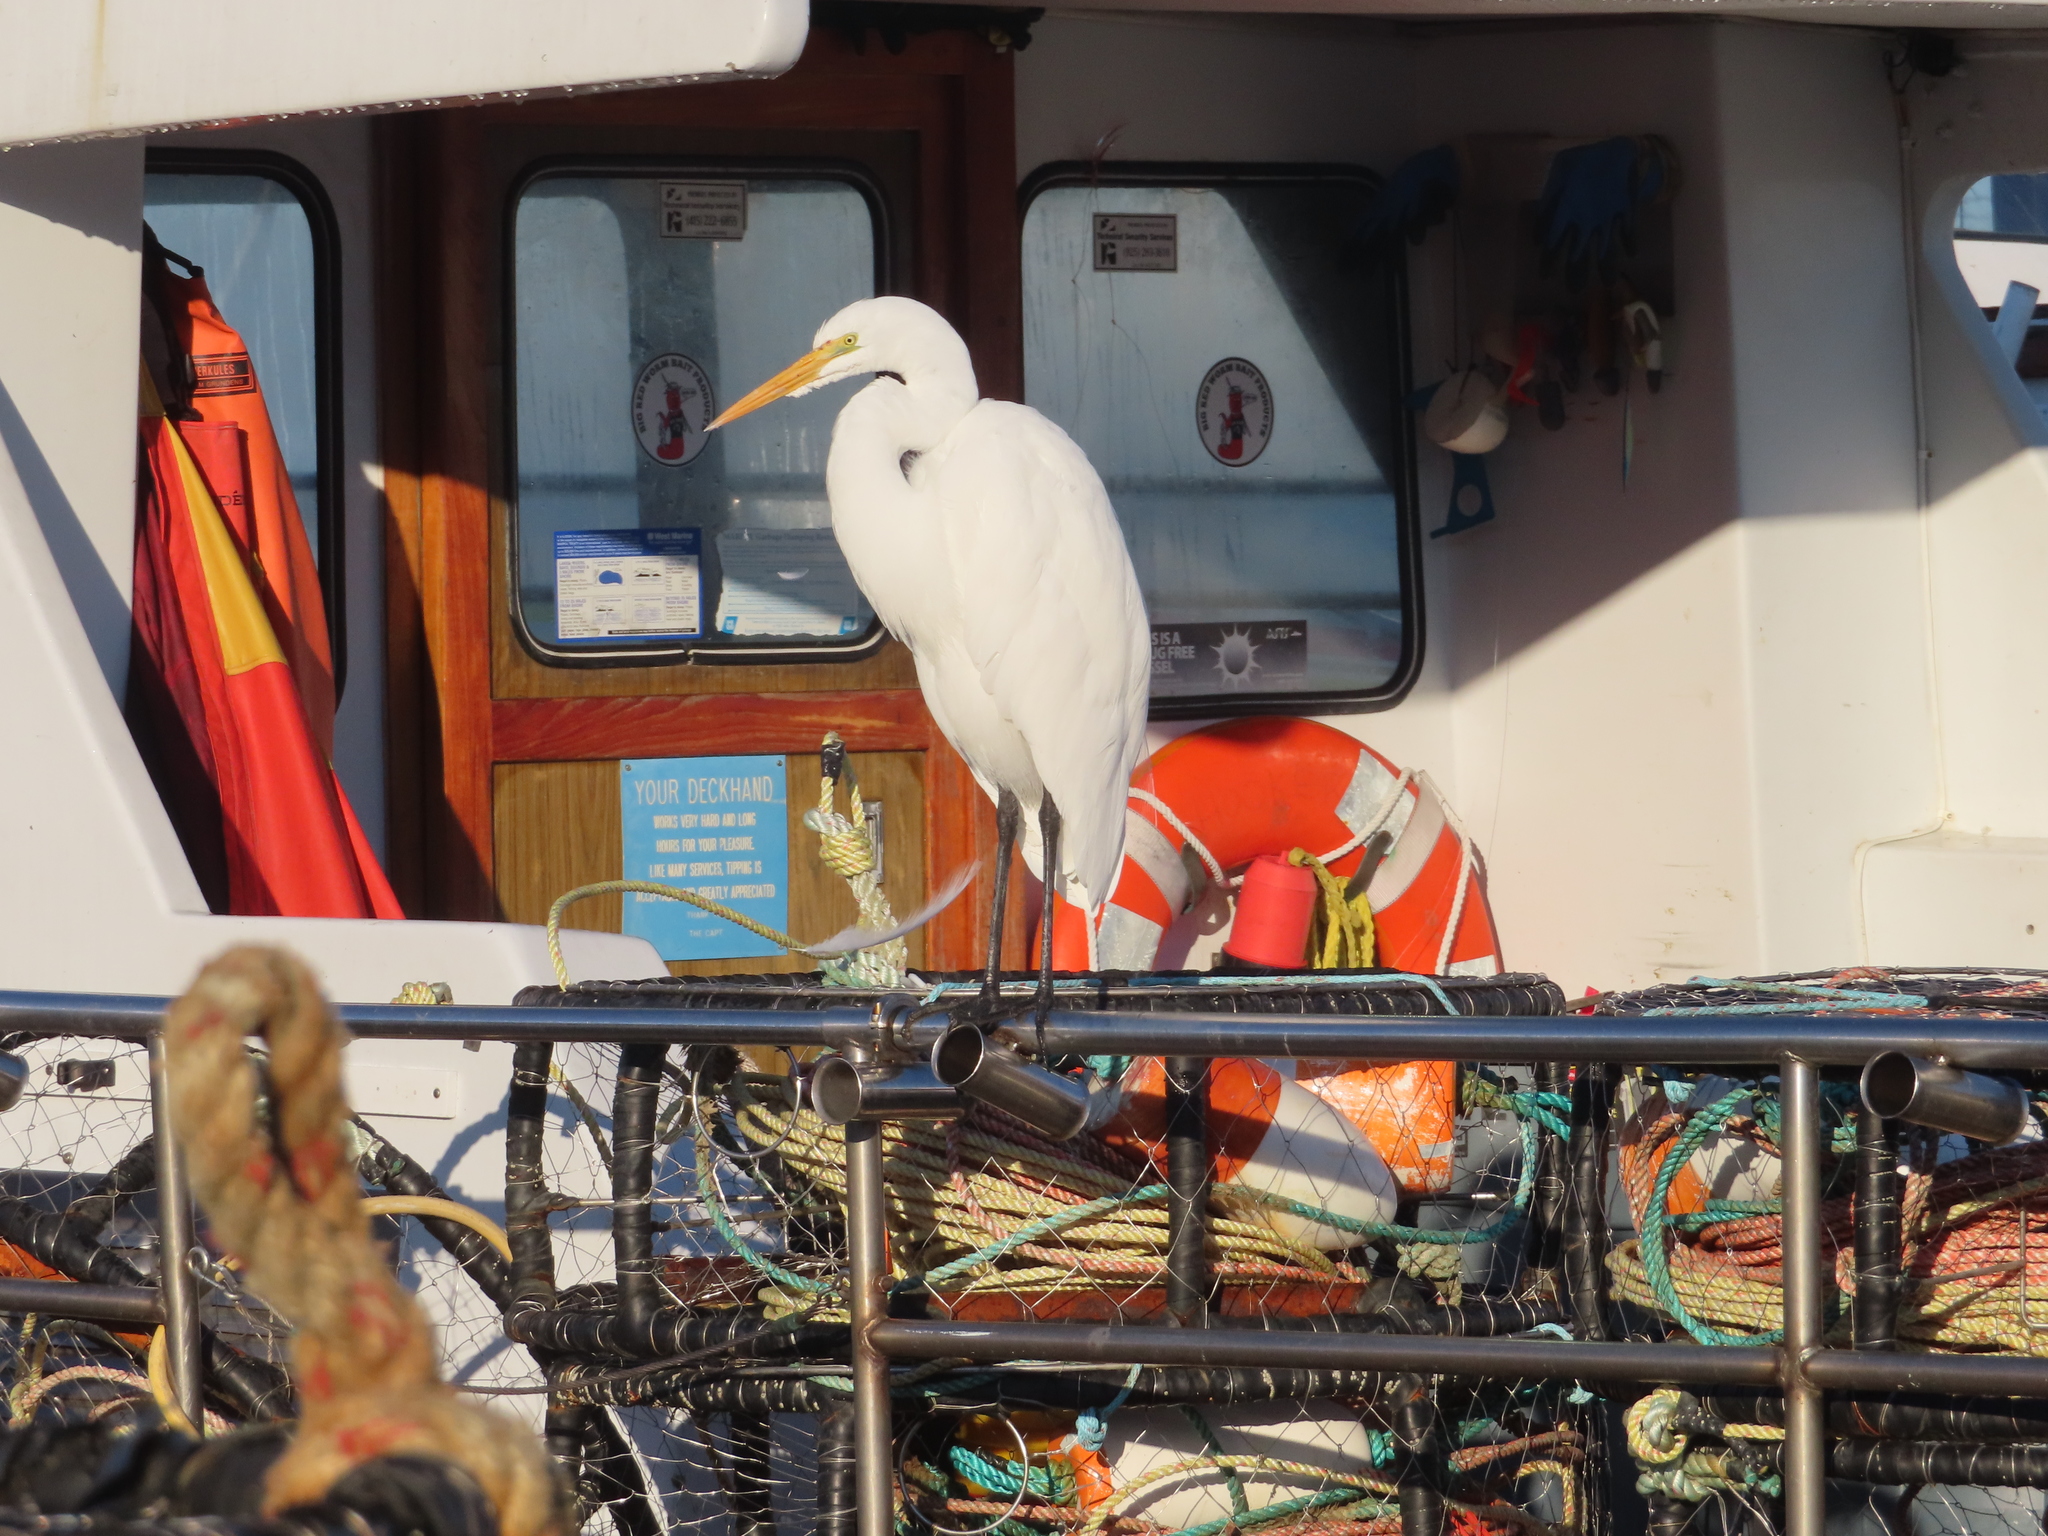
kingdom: Animalia
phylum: Chordata
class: Aves
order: Pelecaniformes
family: Ardeidae
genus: Ardea
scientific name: Ardea alba
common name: Great egret
